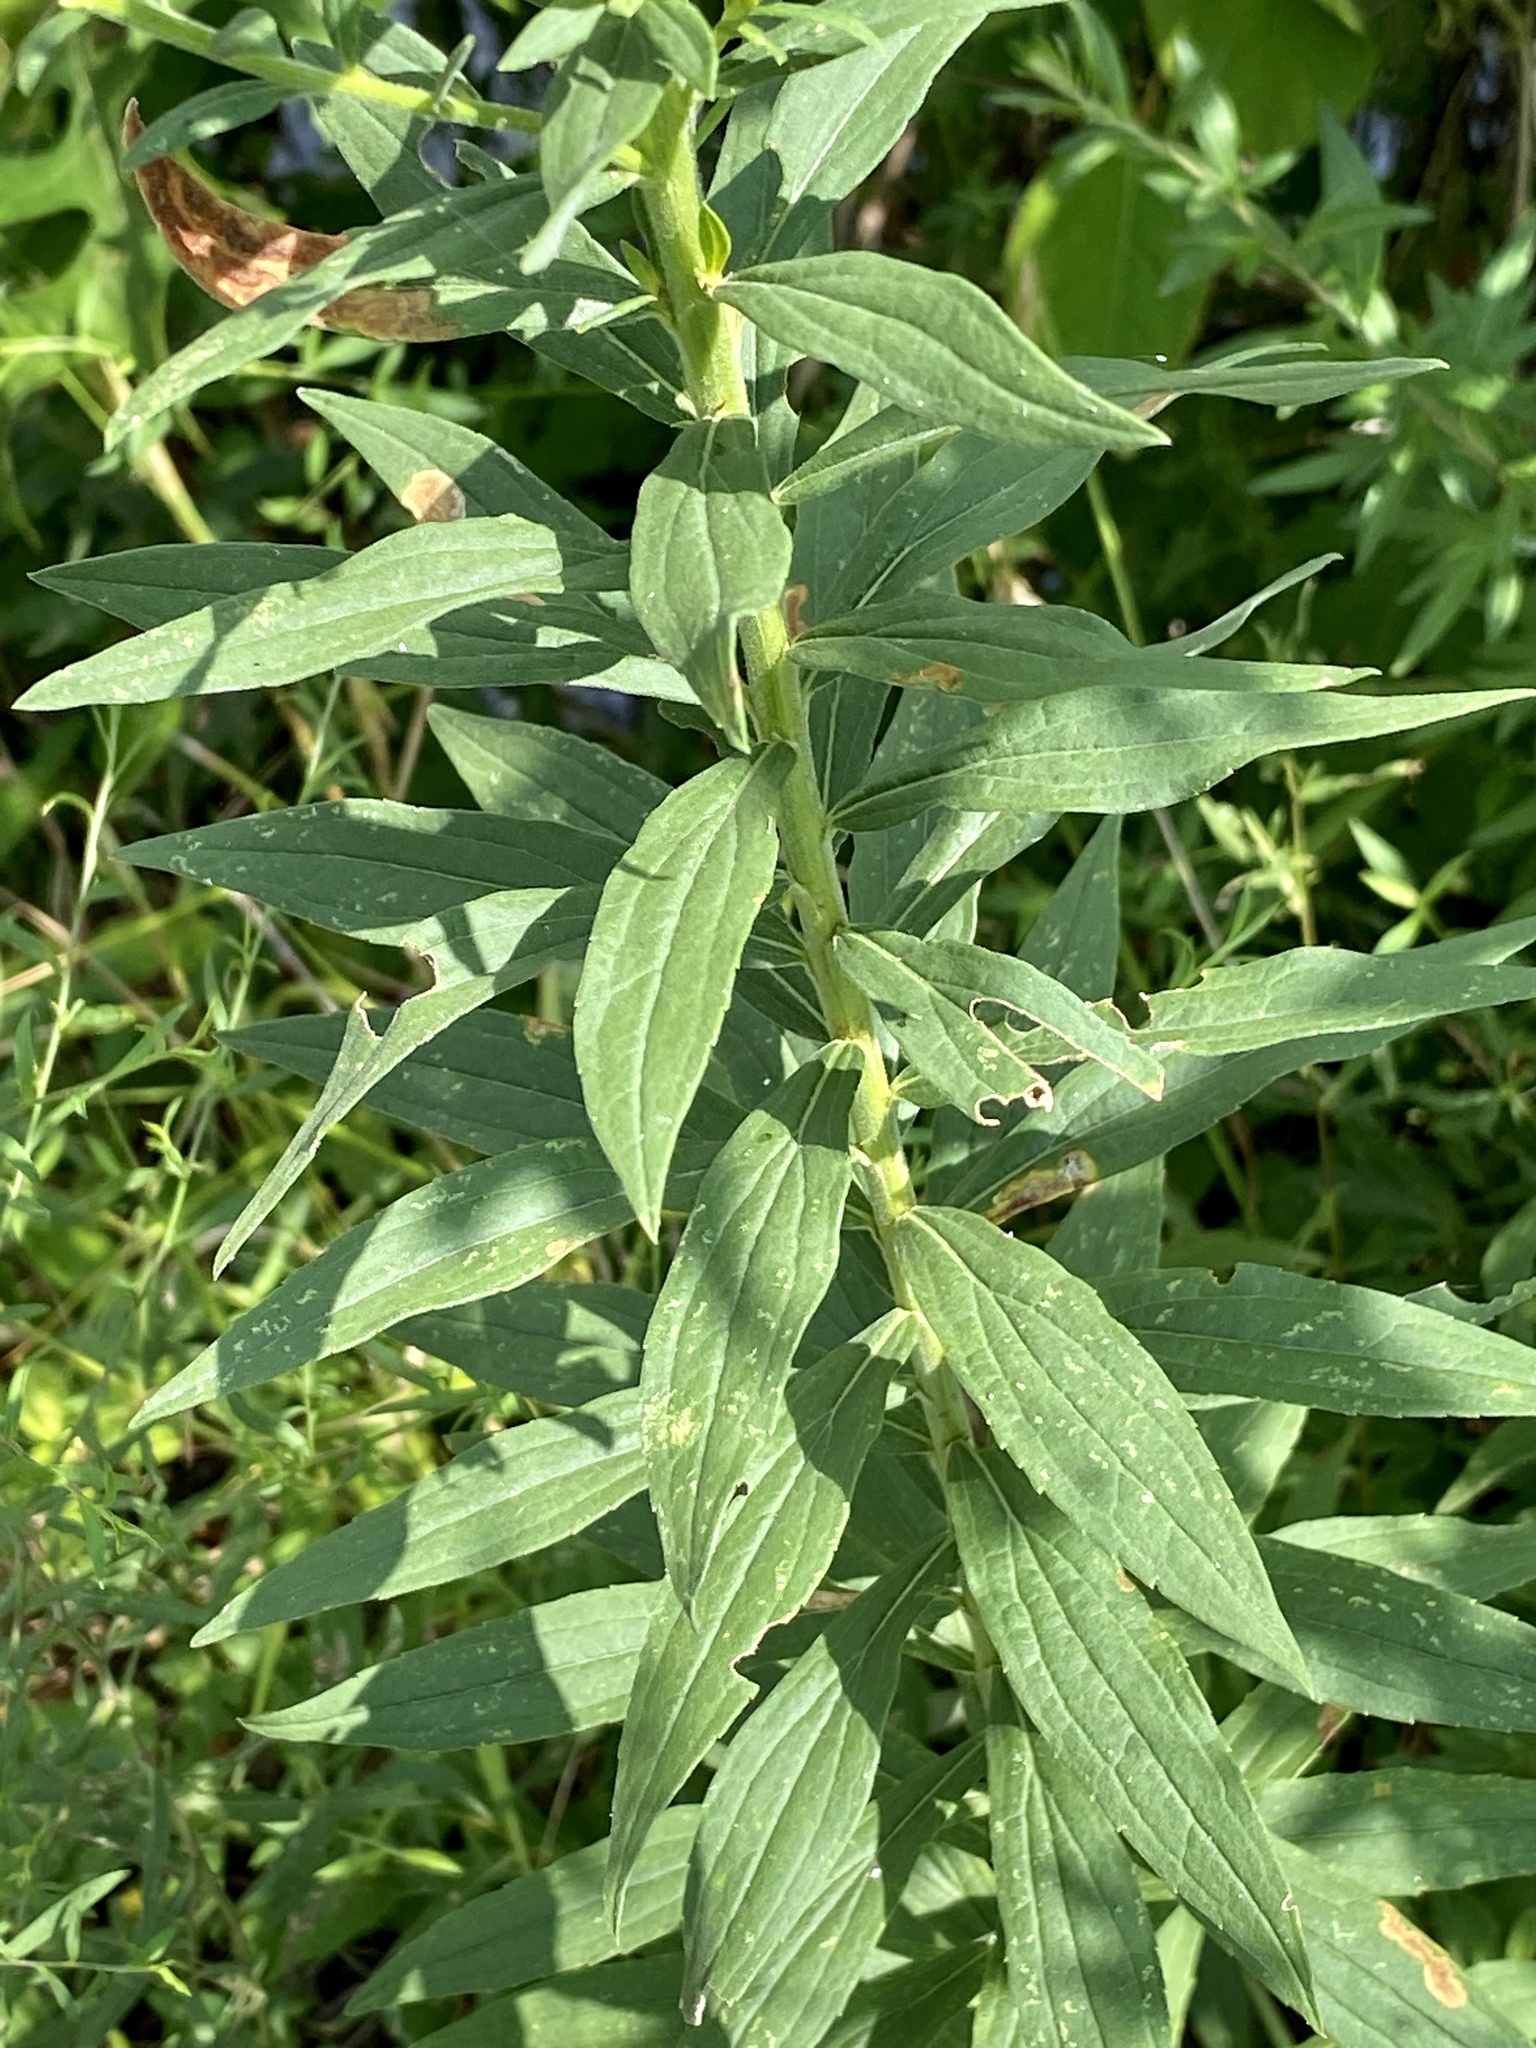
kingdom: Plantae
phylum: Tracheophyta
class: Magnoliopsida
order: Asterales
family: Asteraceae
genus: Solidago
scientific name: Solidago altissima
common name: Late goldenrod
